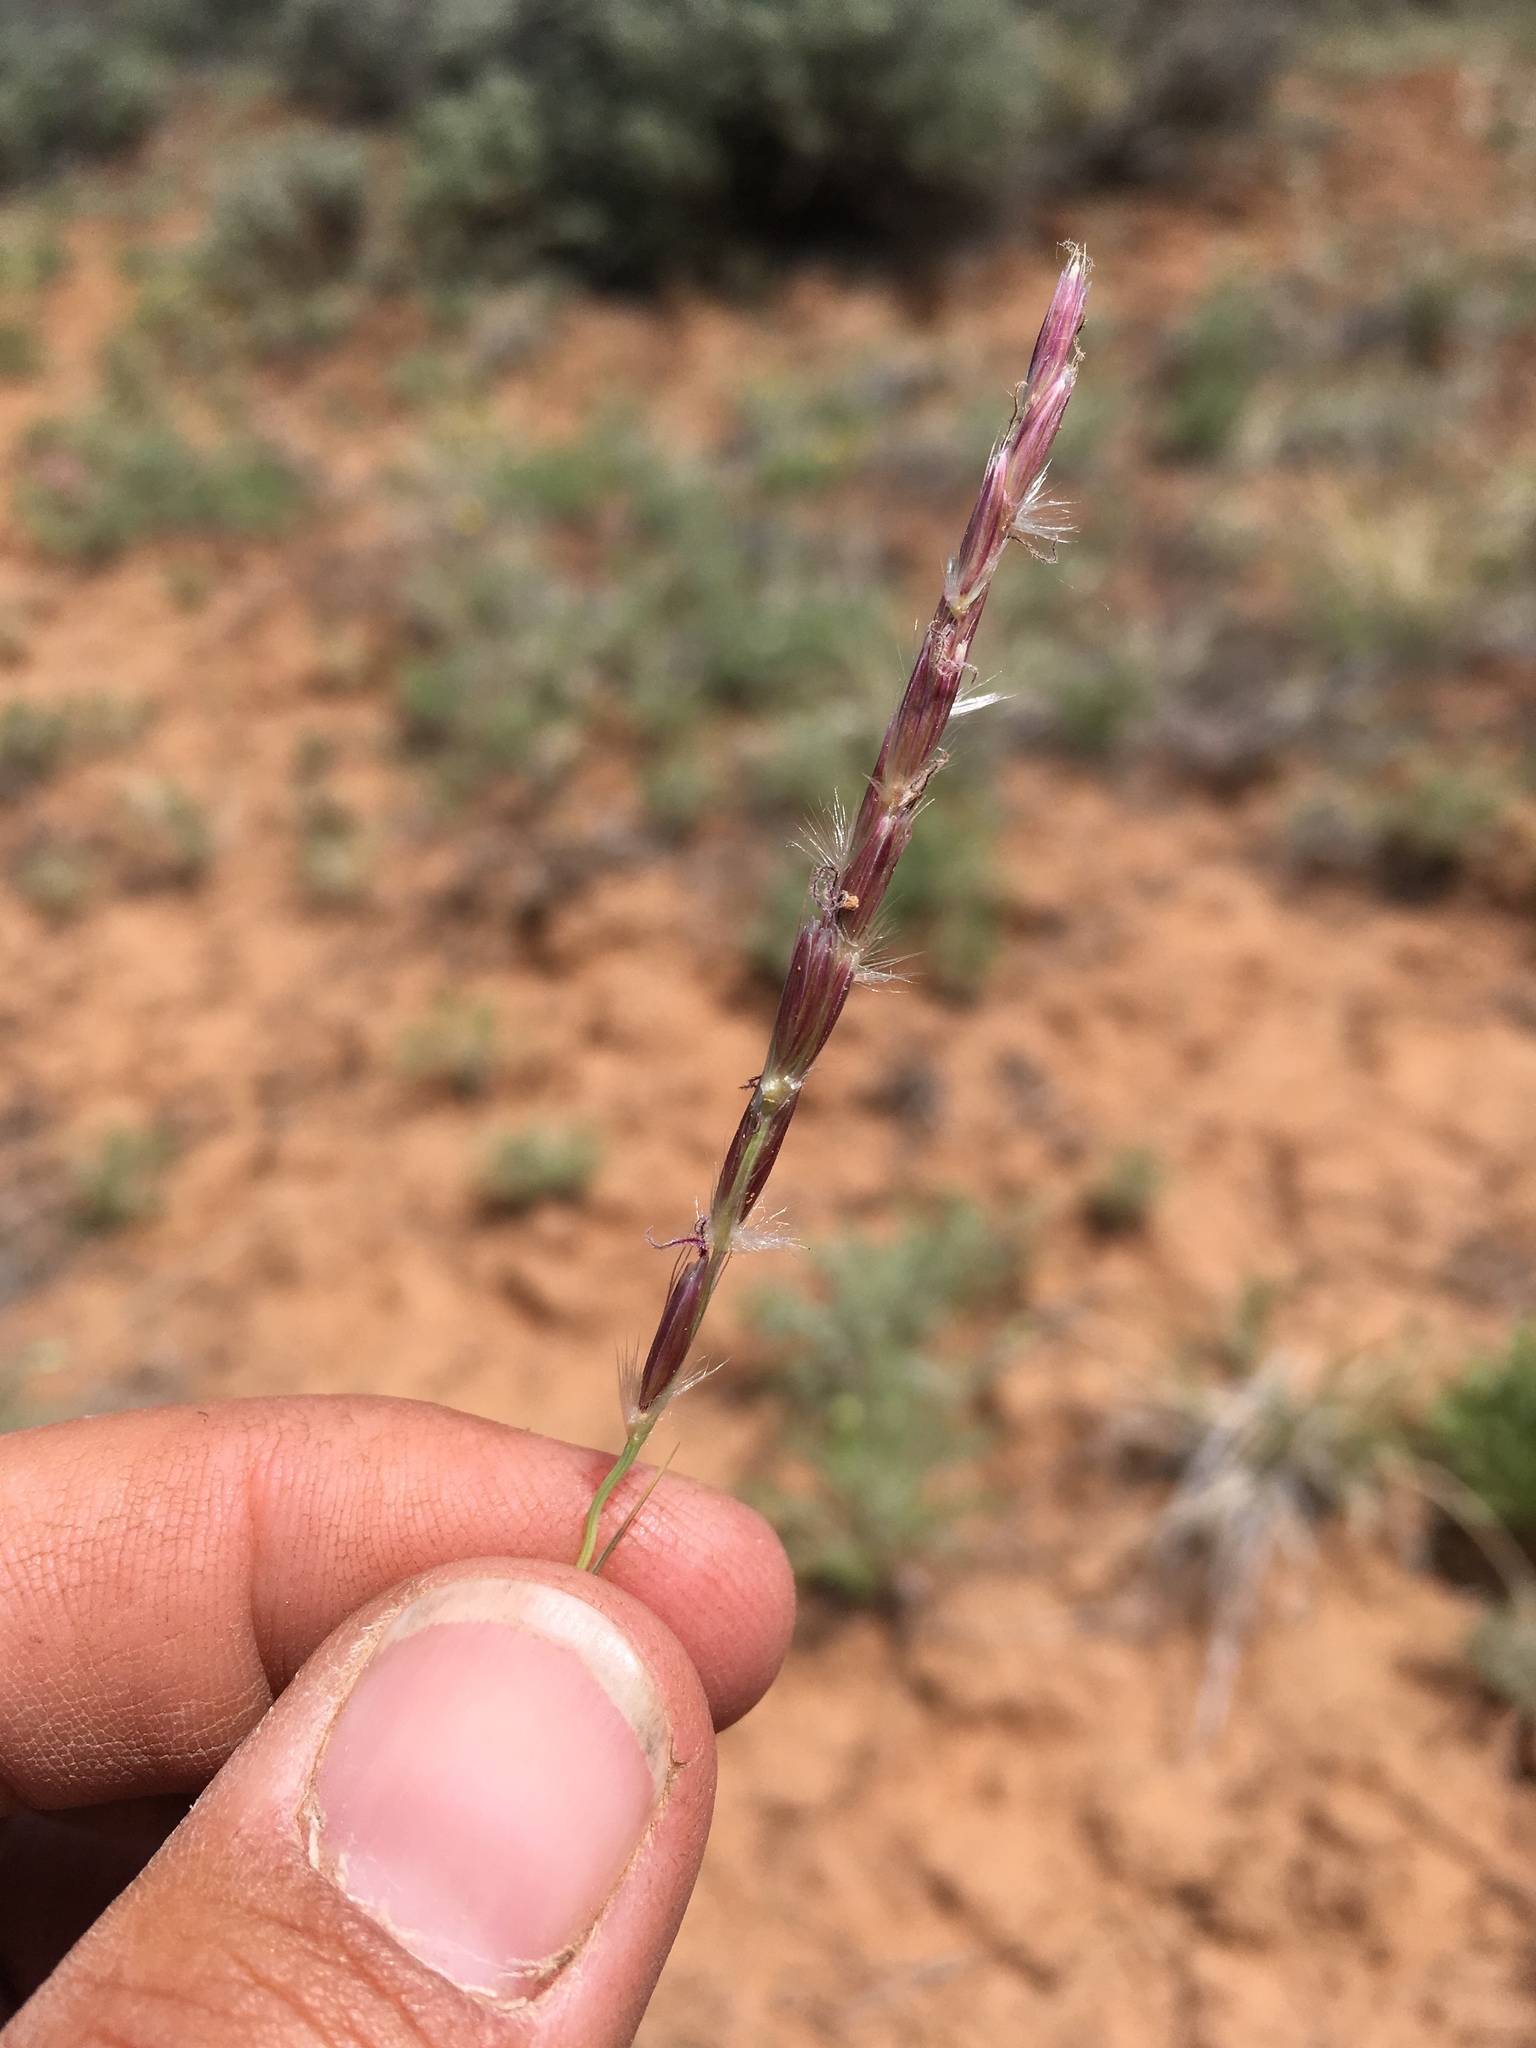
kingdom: Plantae
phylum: Tracheophyta
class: Liliopsida
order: Poales
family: Poaceae
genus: Hilaria
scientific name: Hilaria jamesii
